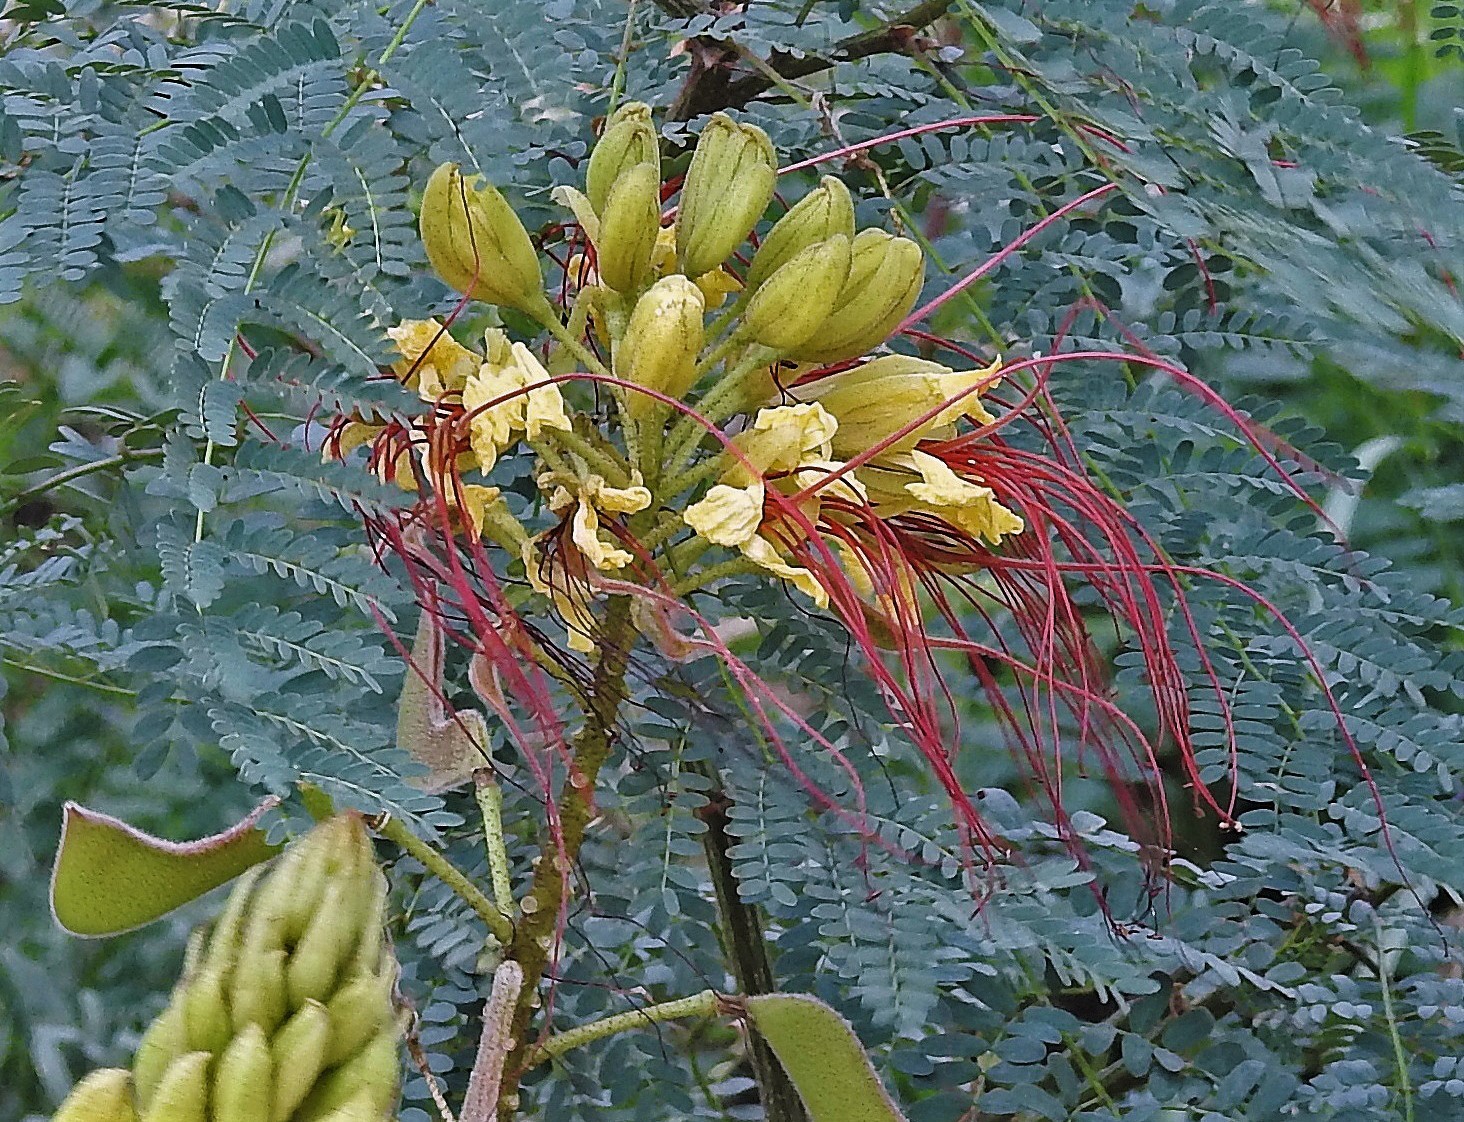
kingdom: Plantae
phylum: Tracheophyta
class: Magnoliopsida
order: Fabales
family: Fabaceae
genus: Erythrostemon
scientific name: Erythrostemon gilliesii
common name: Bird-of-paradise shrub
